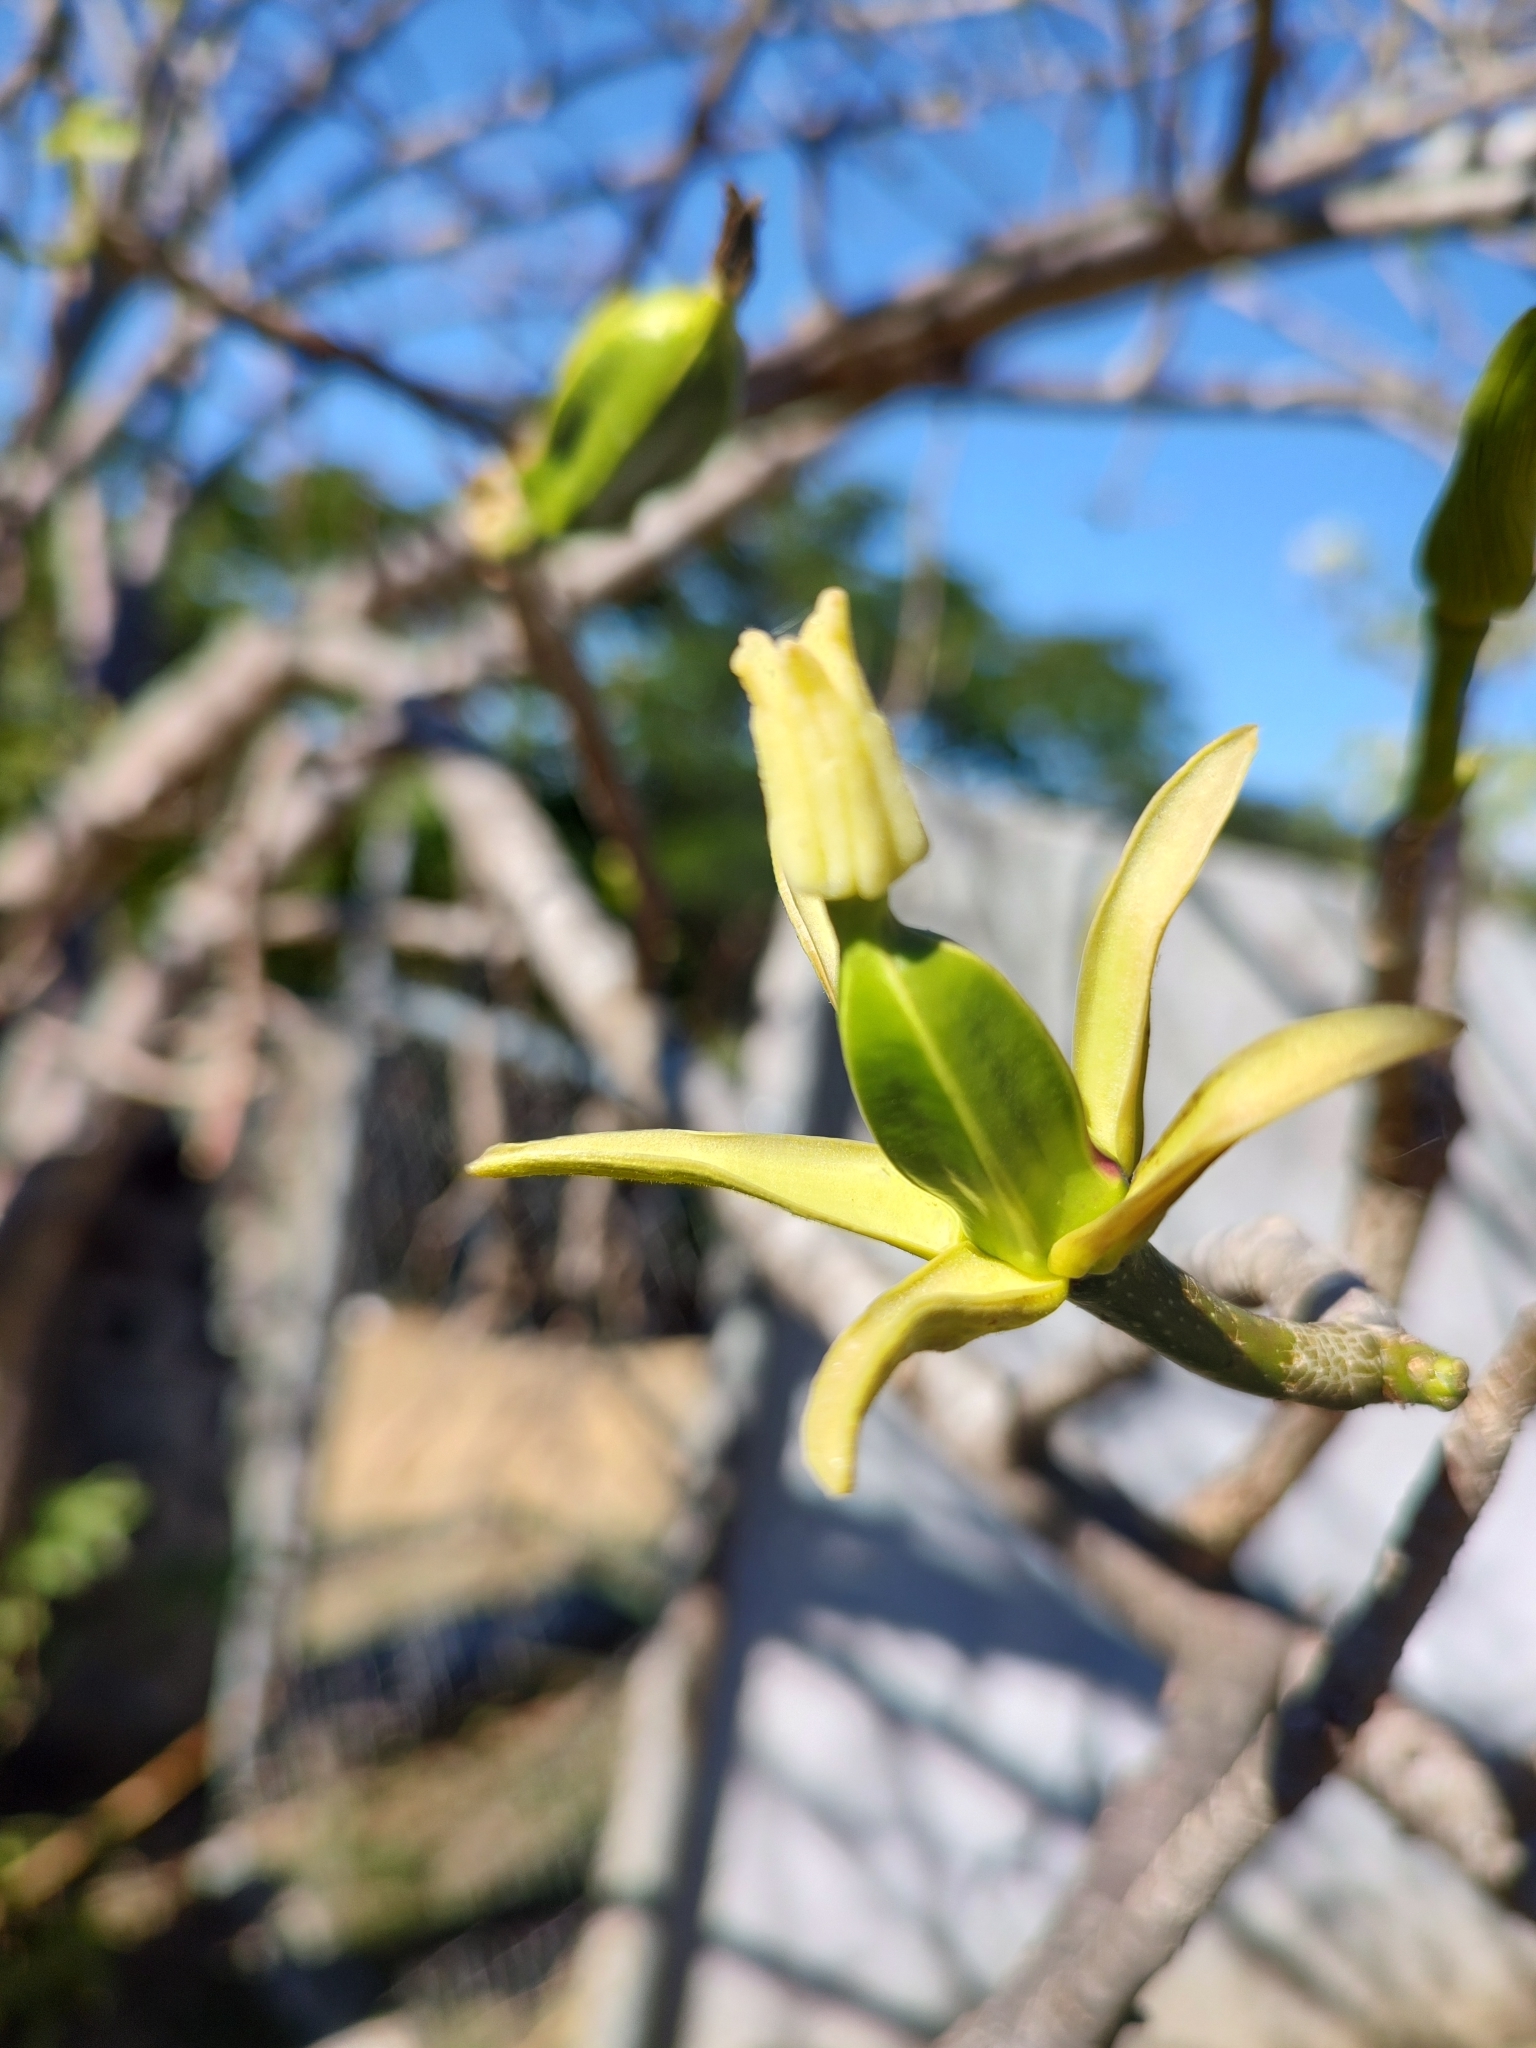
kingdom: Plantae
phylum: Tracheophyta
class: Magnoliopsida
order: Brassicales
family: Caricaceae
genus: Jacaratia
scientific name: Jacaratia mexicana
